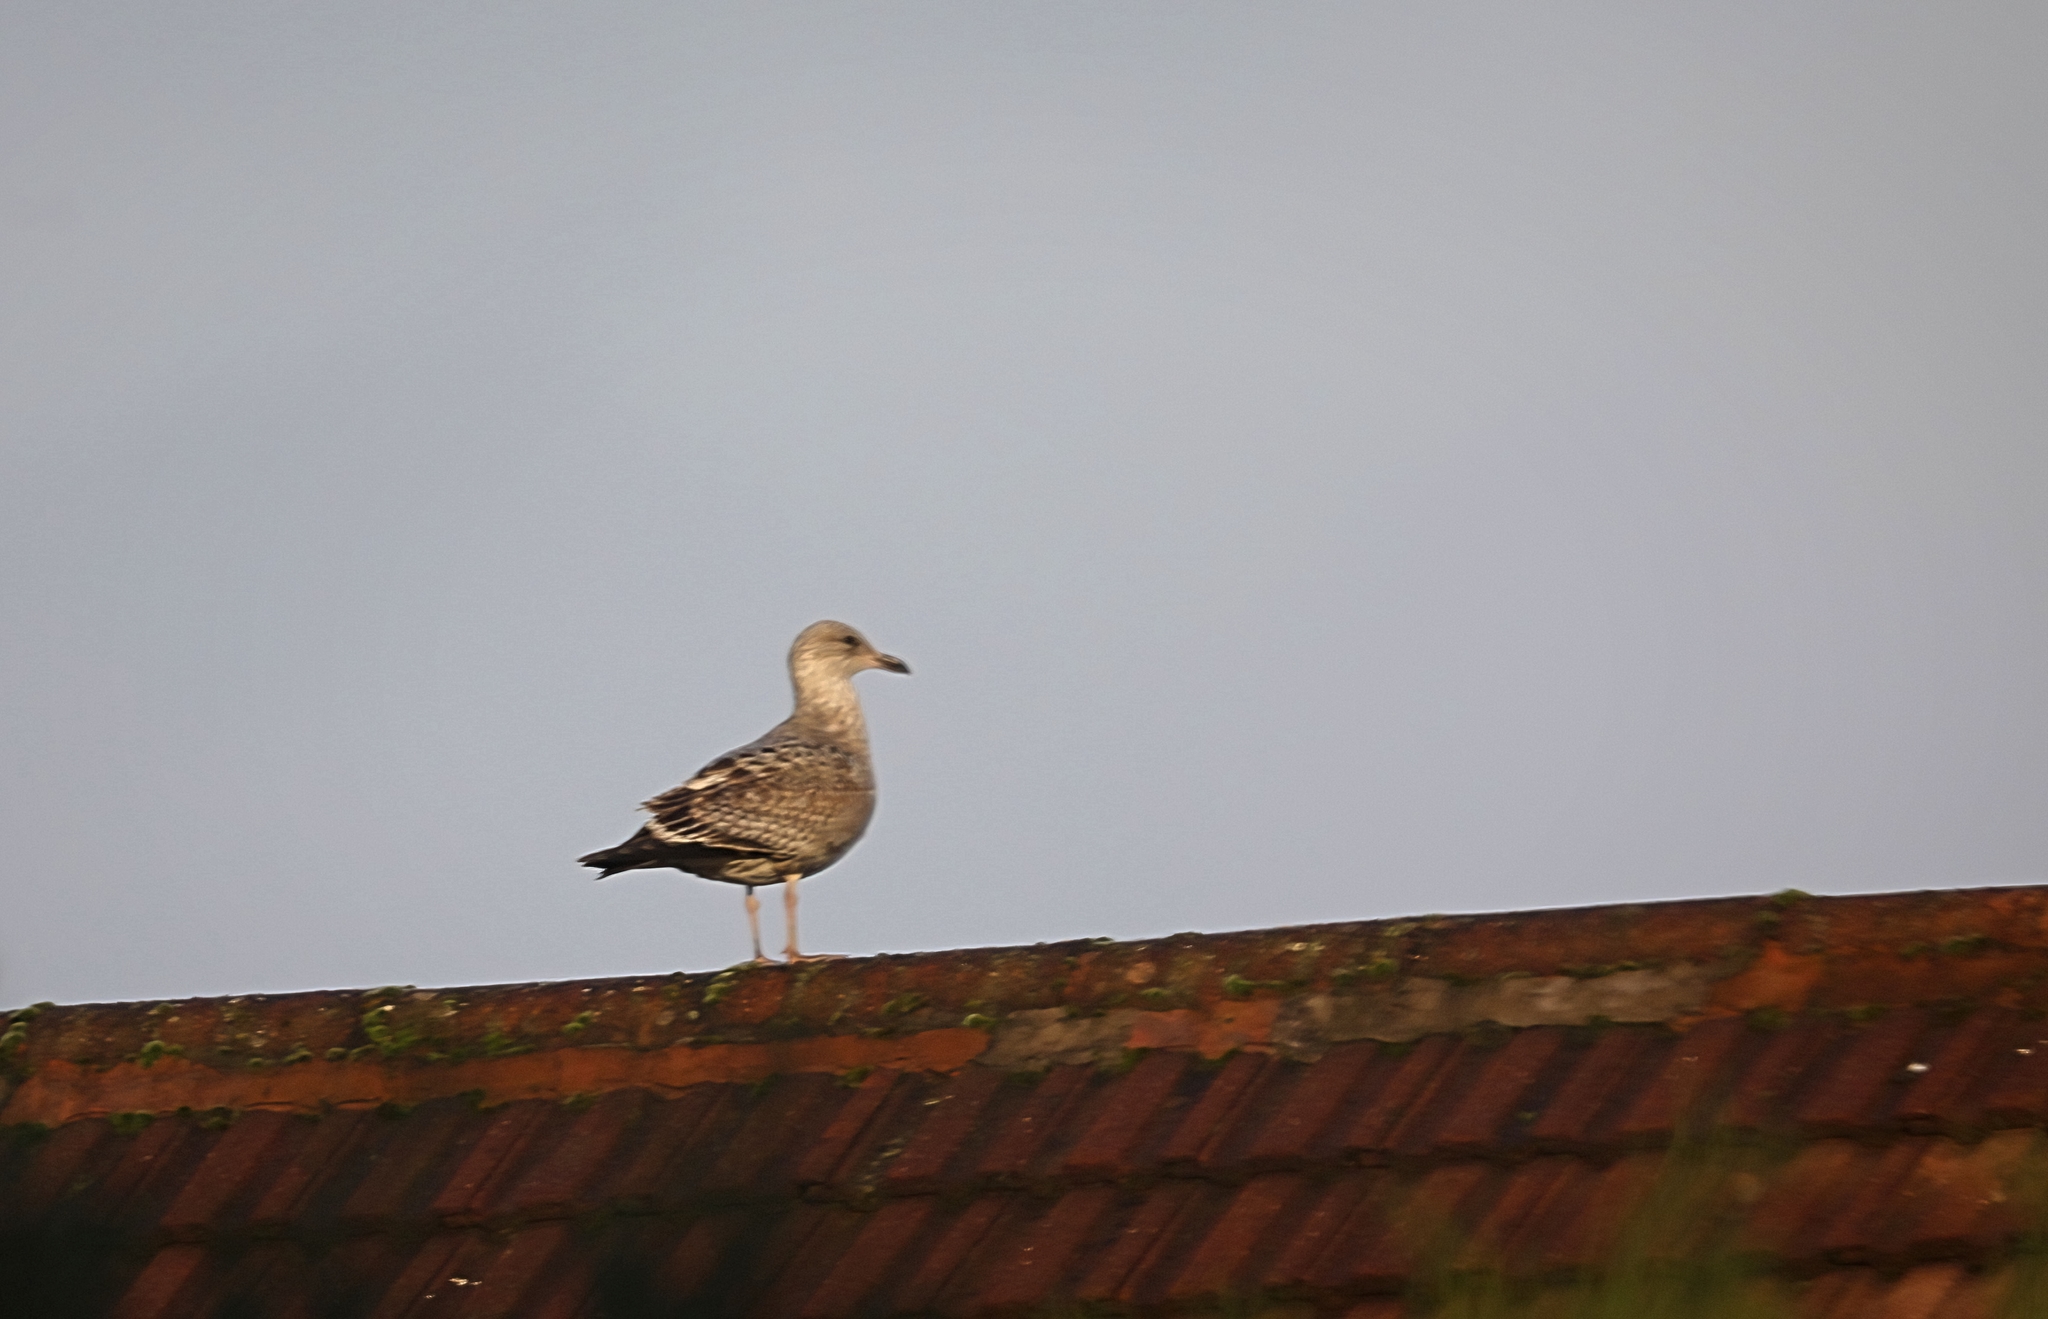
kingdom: Animalia
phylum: Chordata
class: Aves
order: Charadriiformes
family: Laridae
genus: Larus
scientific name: Larus argentatus
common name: Herring gull
